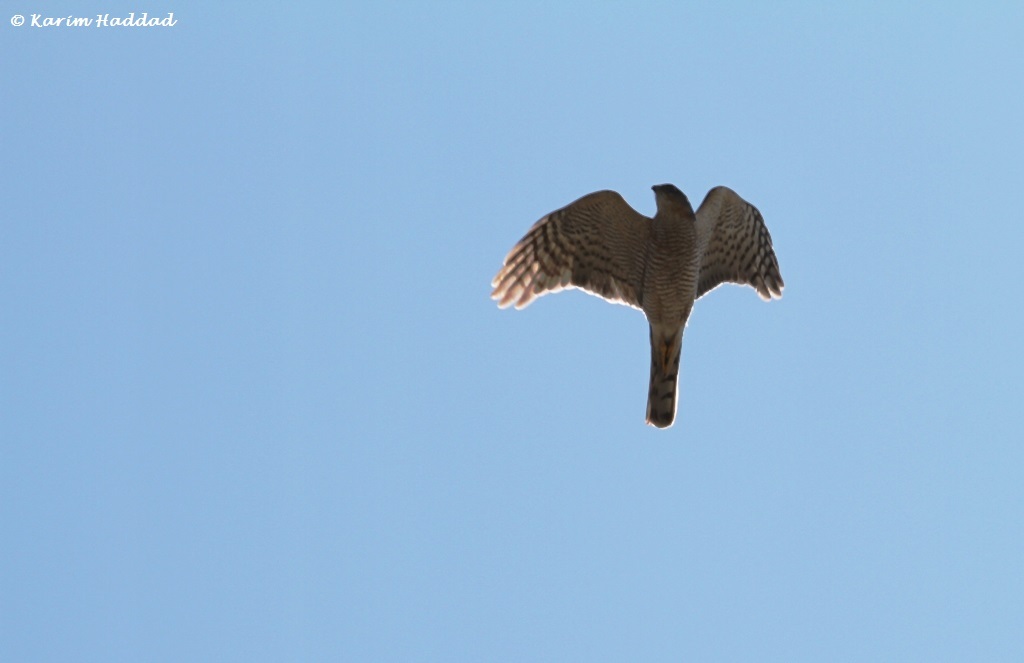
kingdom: Animalia
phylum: Chordata
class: Aves
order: Accipitriformes
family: Accipitridae
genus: Accipiter
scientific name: Accipiter nisus
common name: Eurasian sparrowhawk
